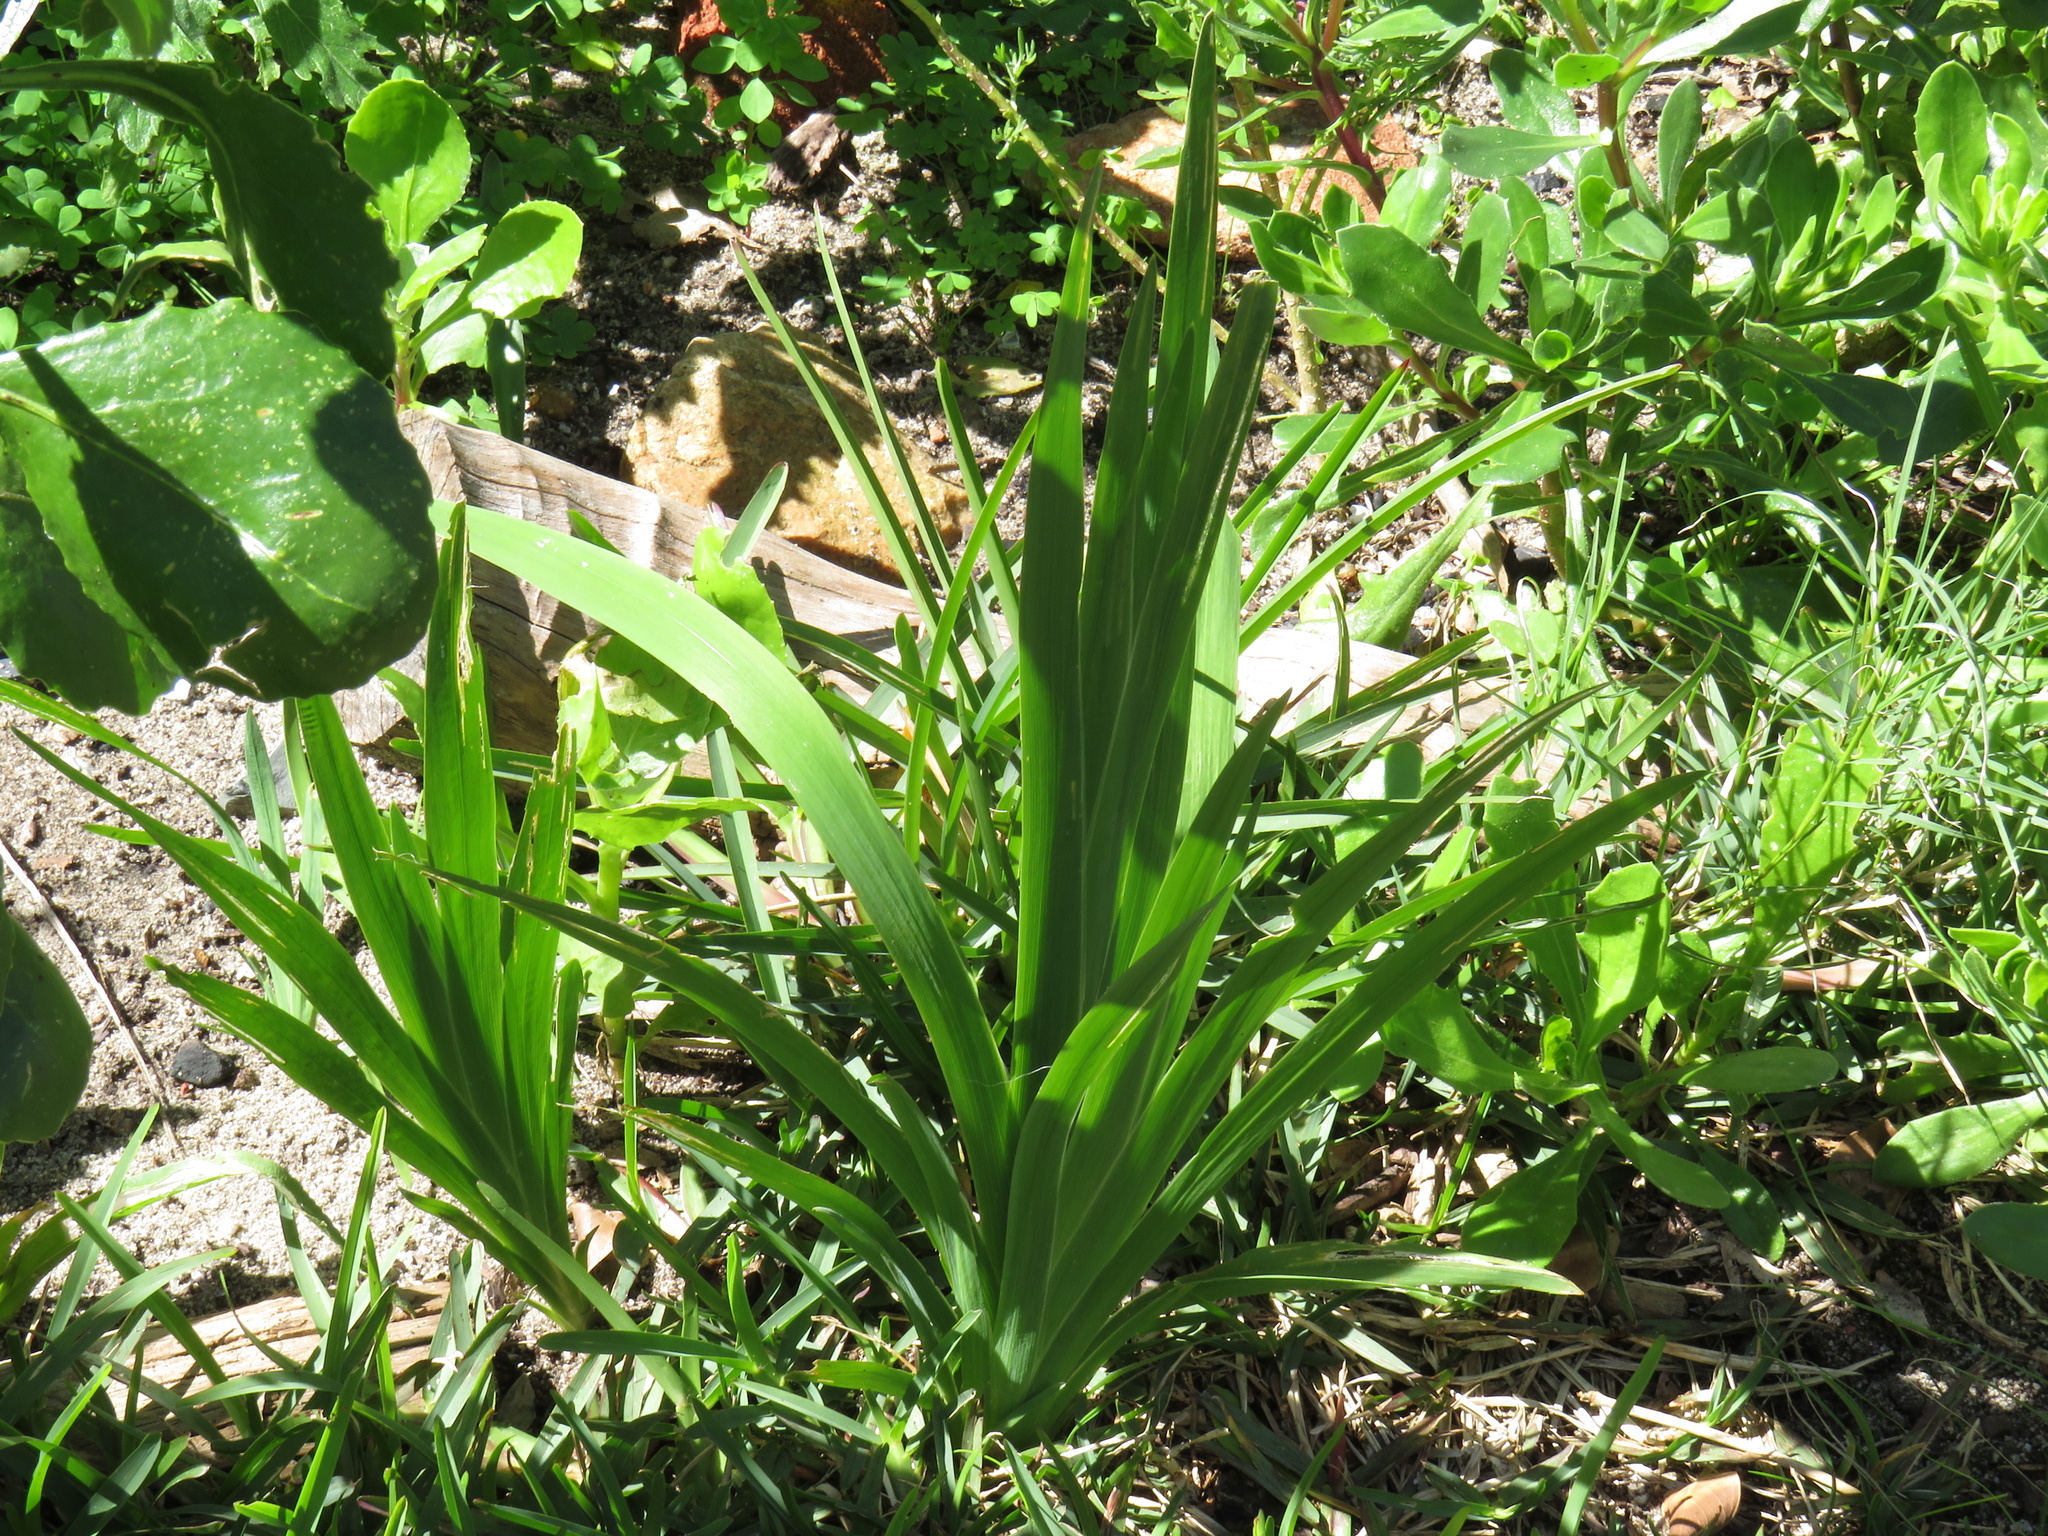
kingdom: Plantae
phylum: Tracheophyta
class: Liliopsida
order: Asparagales
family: Iridaceae
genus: Sparaxis
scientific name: Sparaxis bulbifera
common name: Harlequin-flower
